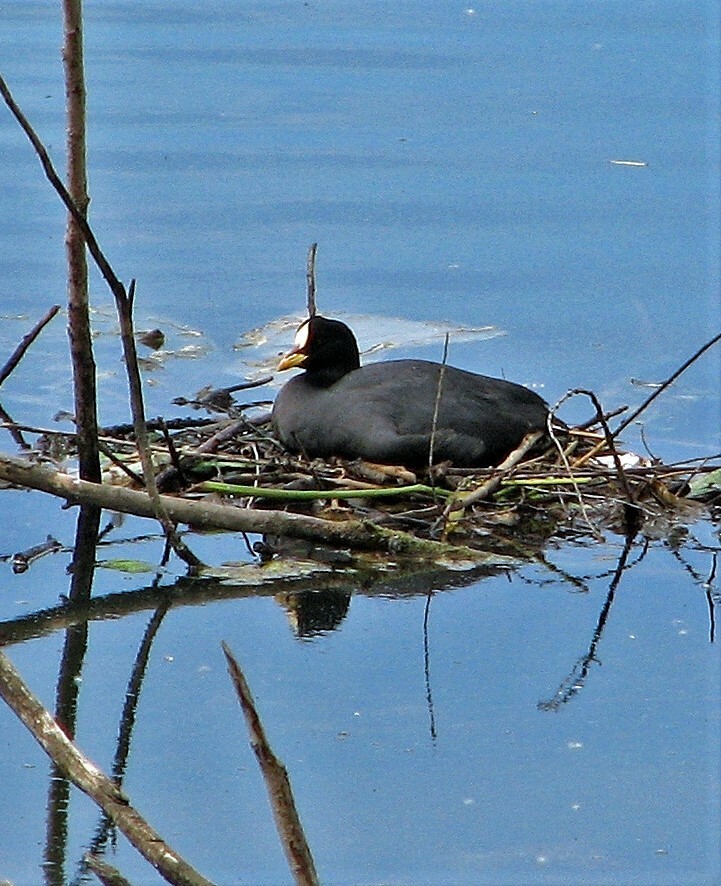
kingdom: Animalia
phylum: Chordata
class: Aves
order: Gruiformes
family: Rallidae
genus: Fulica
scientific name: Fulica armillata
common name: Red-gartered coot
